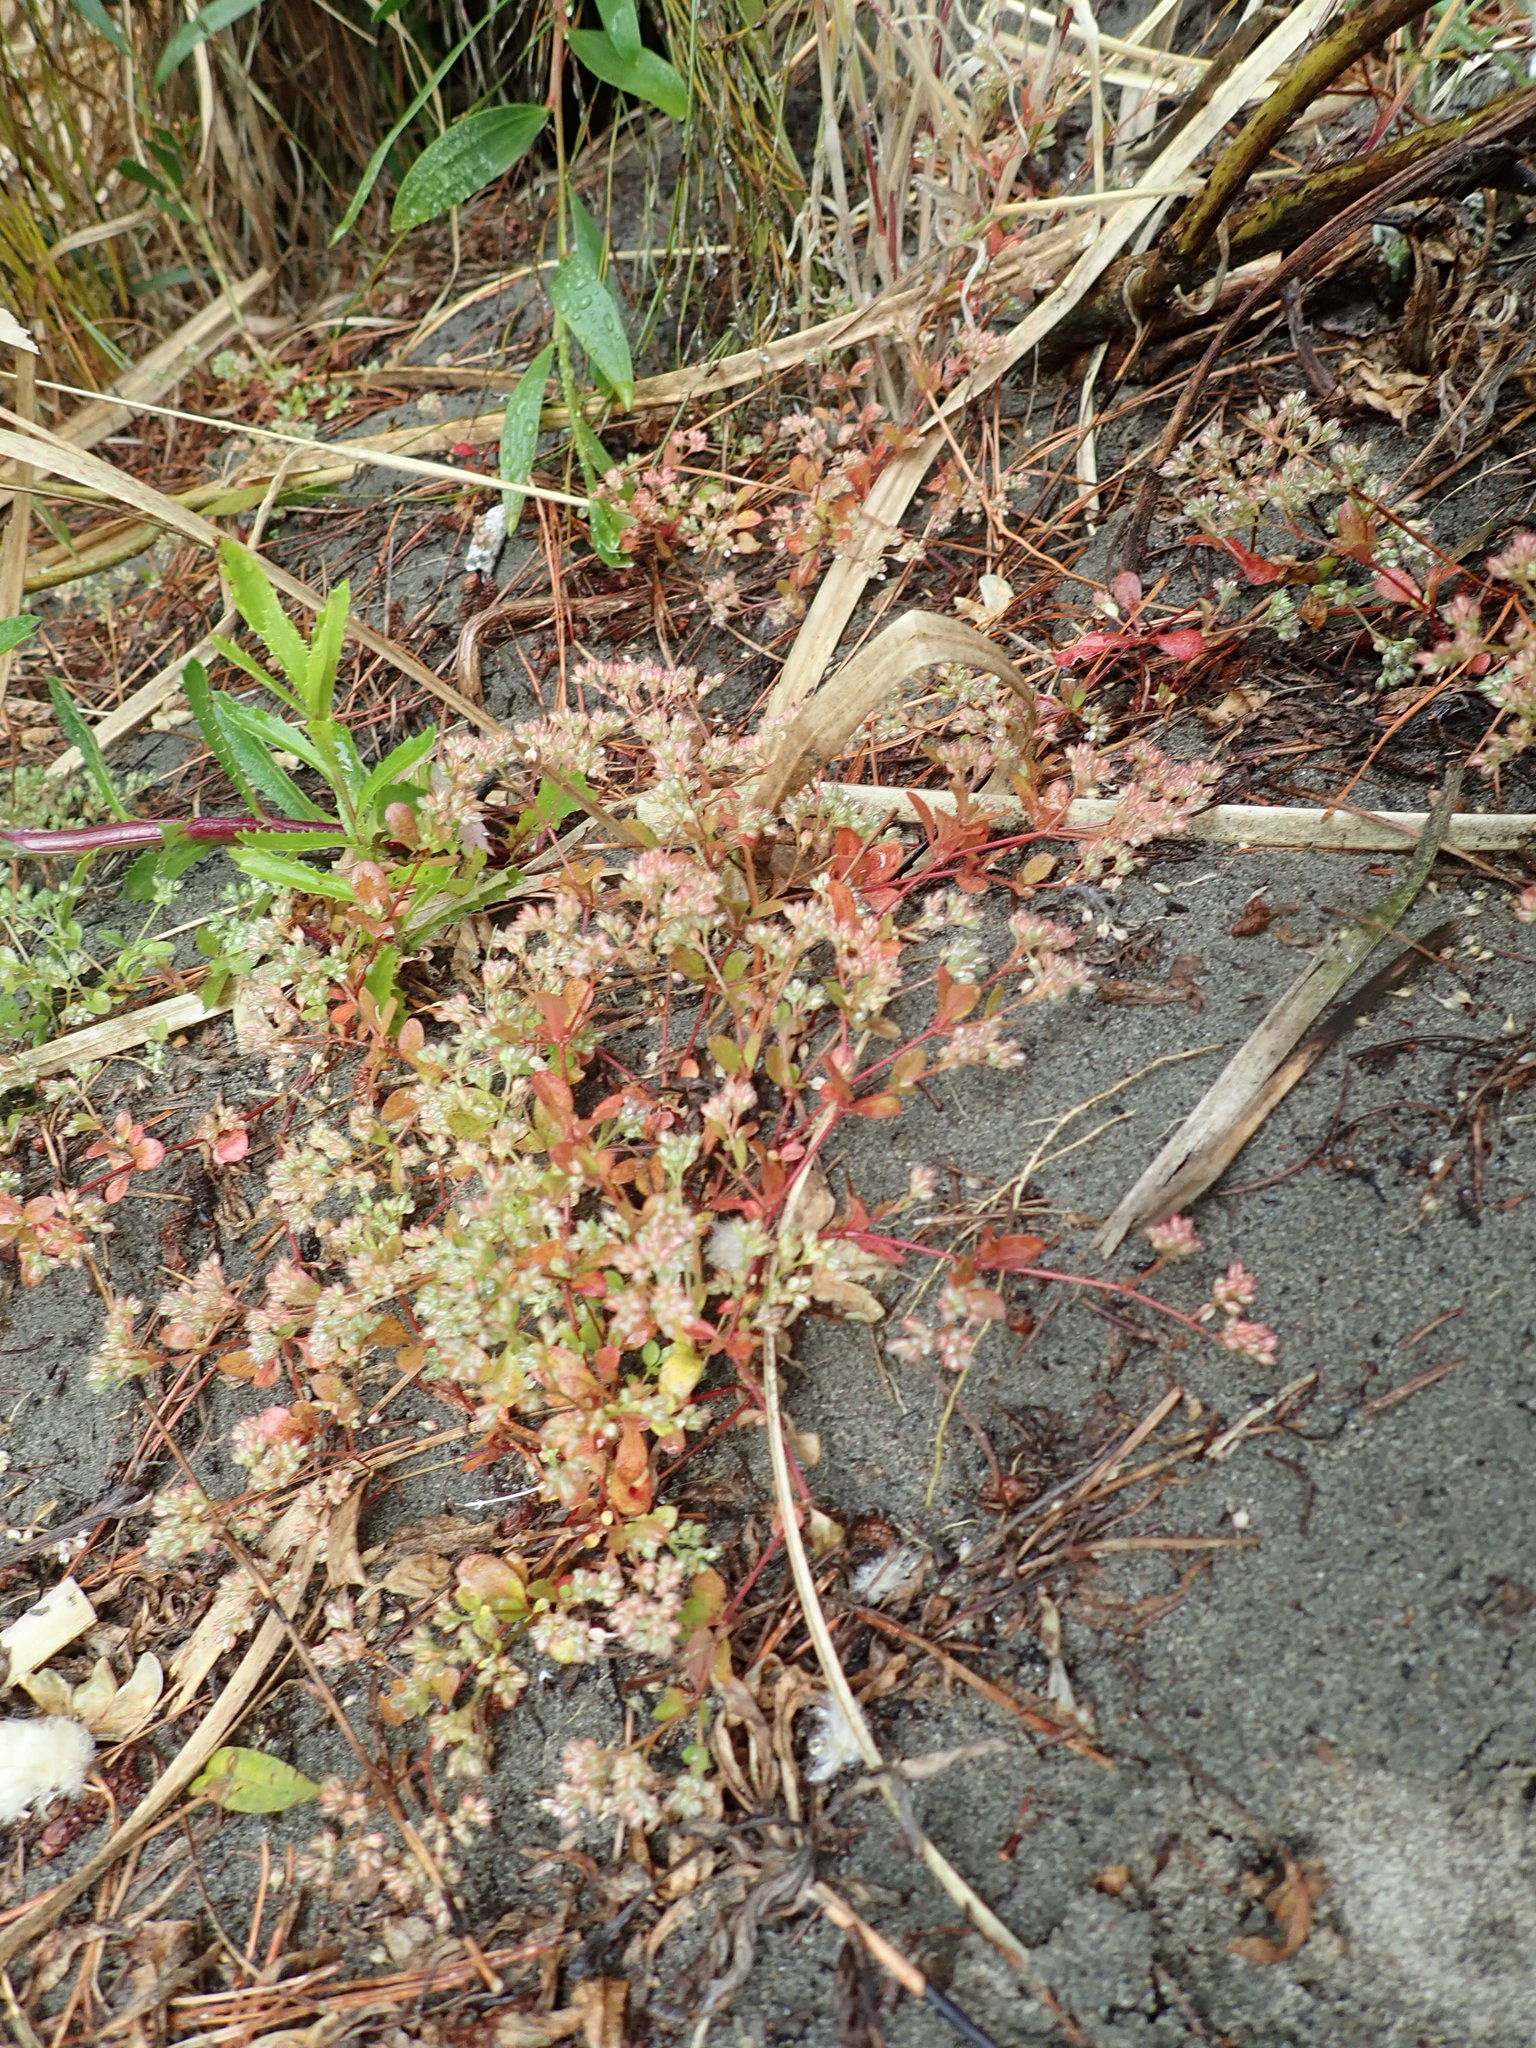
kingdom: Plantae
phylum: Tracheophyta
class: Magnoliopsida
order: Caryophyllales
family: Caryophyllaceae
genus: Polycarpon
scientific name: Polycarpon tetraphyllum
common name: Four-leaved all-seed
